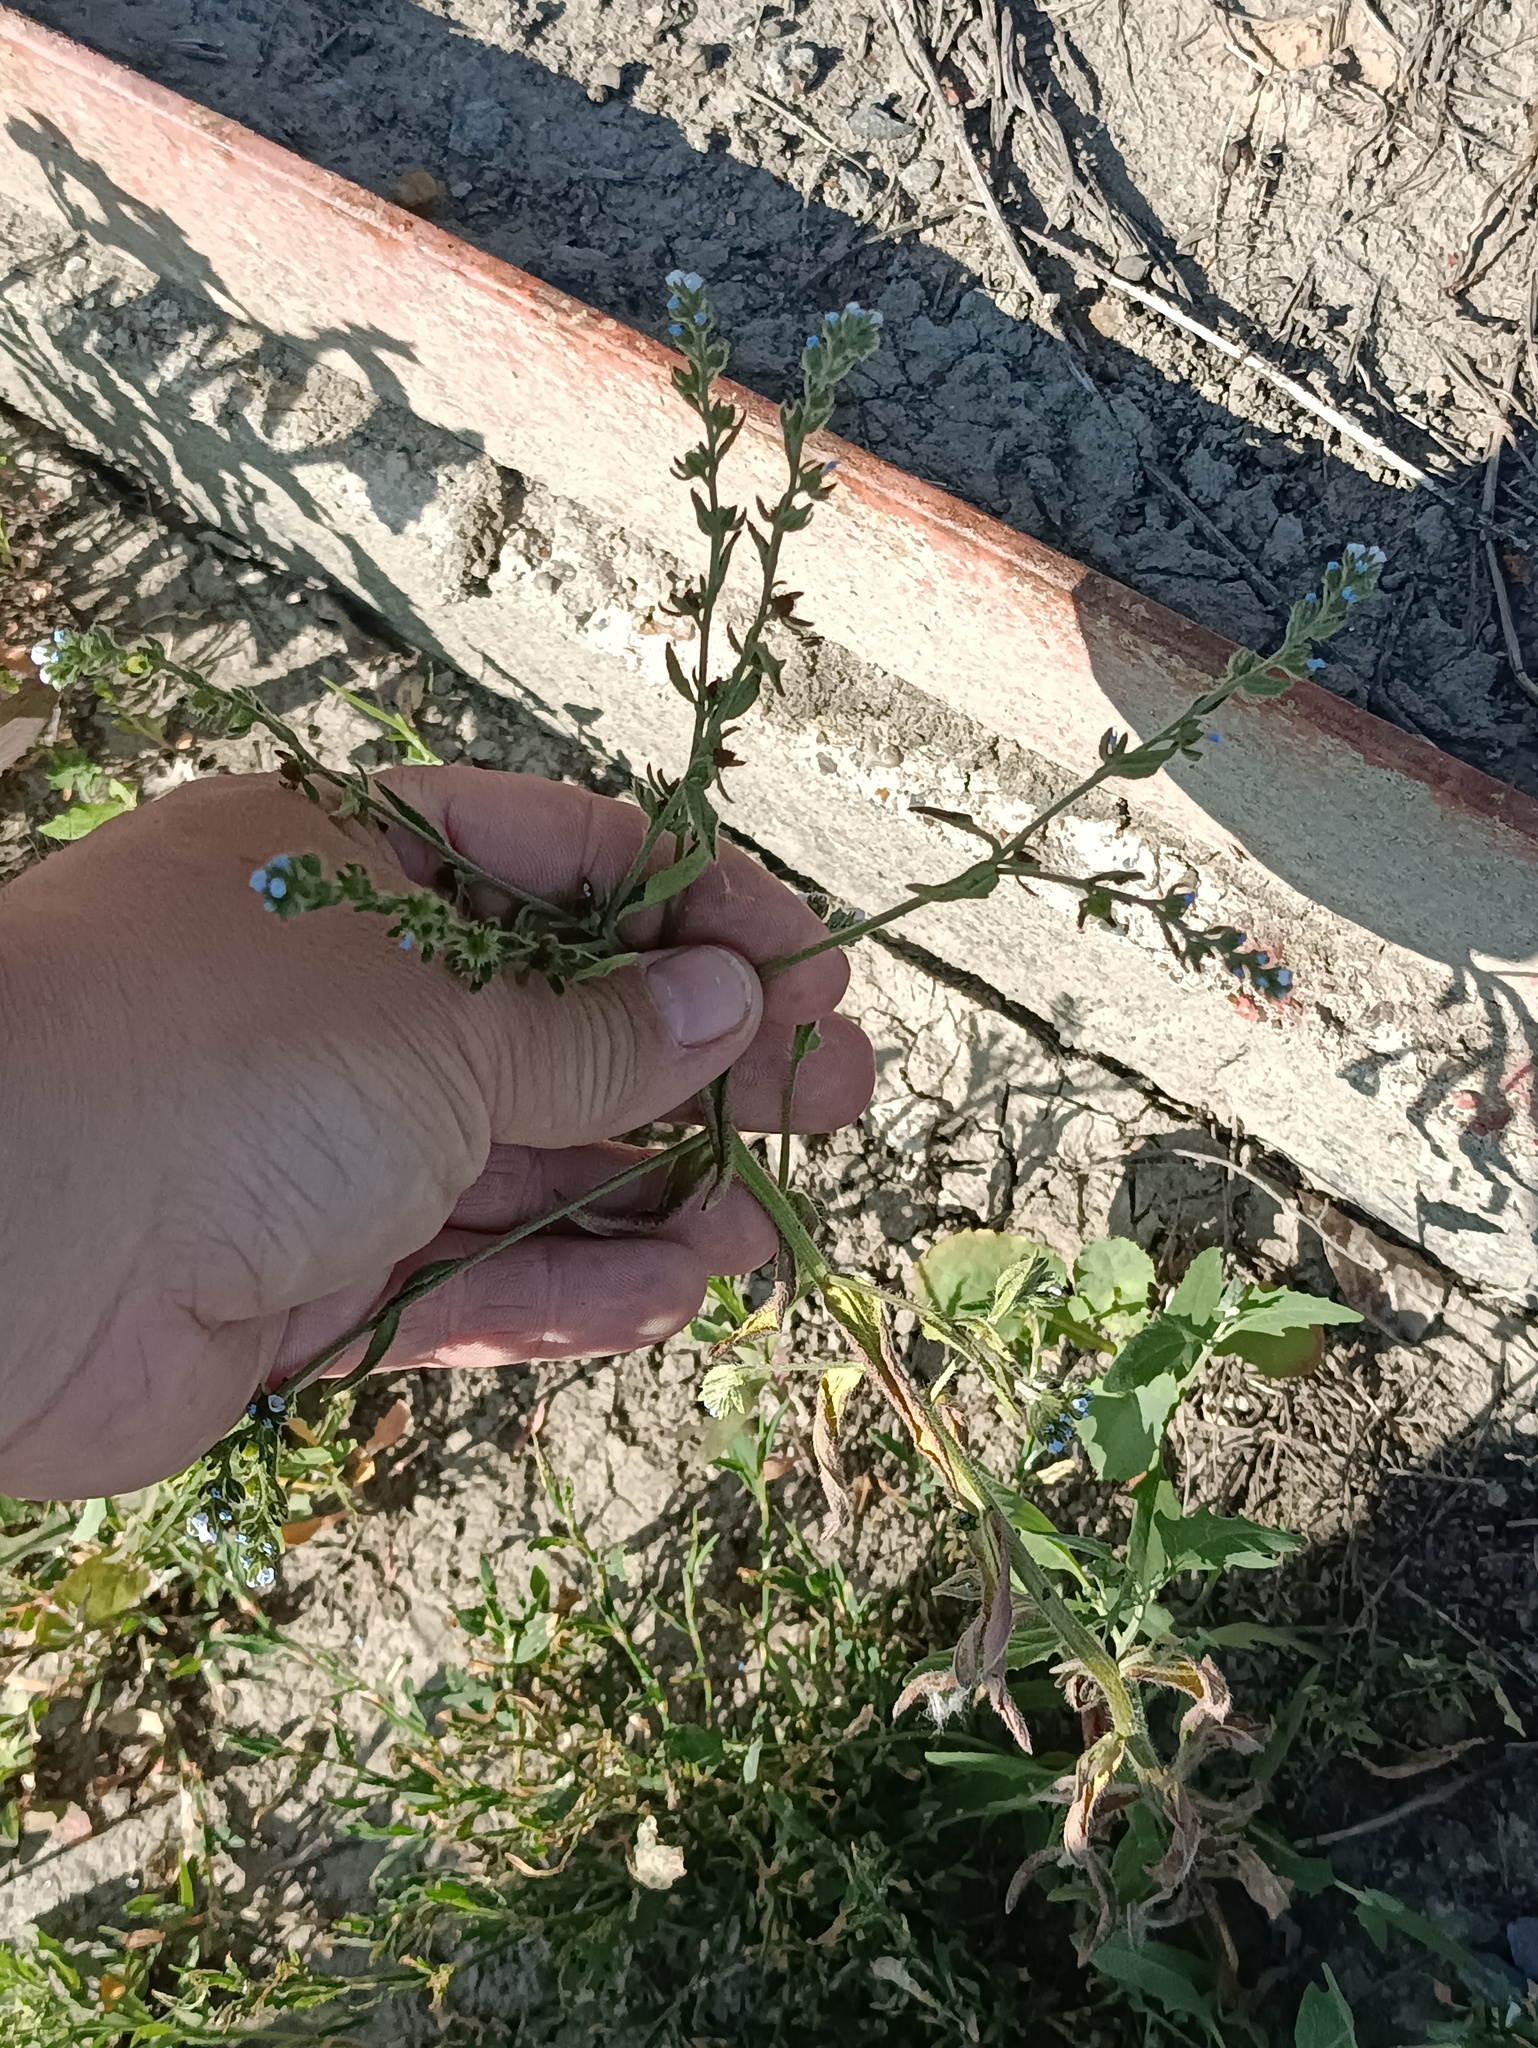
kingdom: Plantae
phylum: Tracheophyta
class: Magnoliopsida
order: Boraginales
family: Boraginaceae
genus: Lappula
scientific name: Lappula squarrosa
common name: European stickseed
